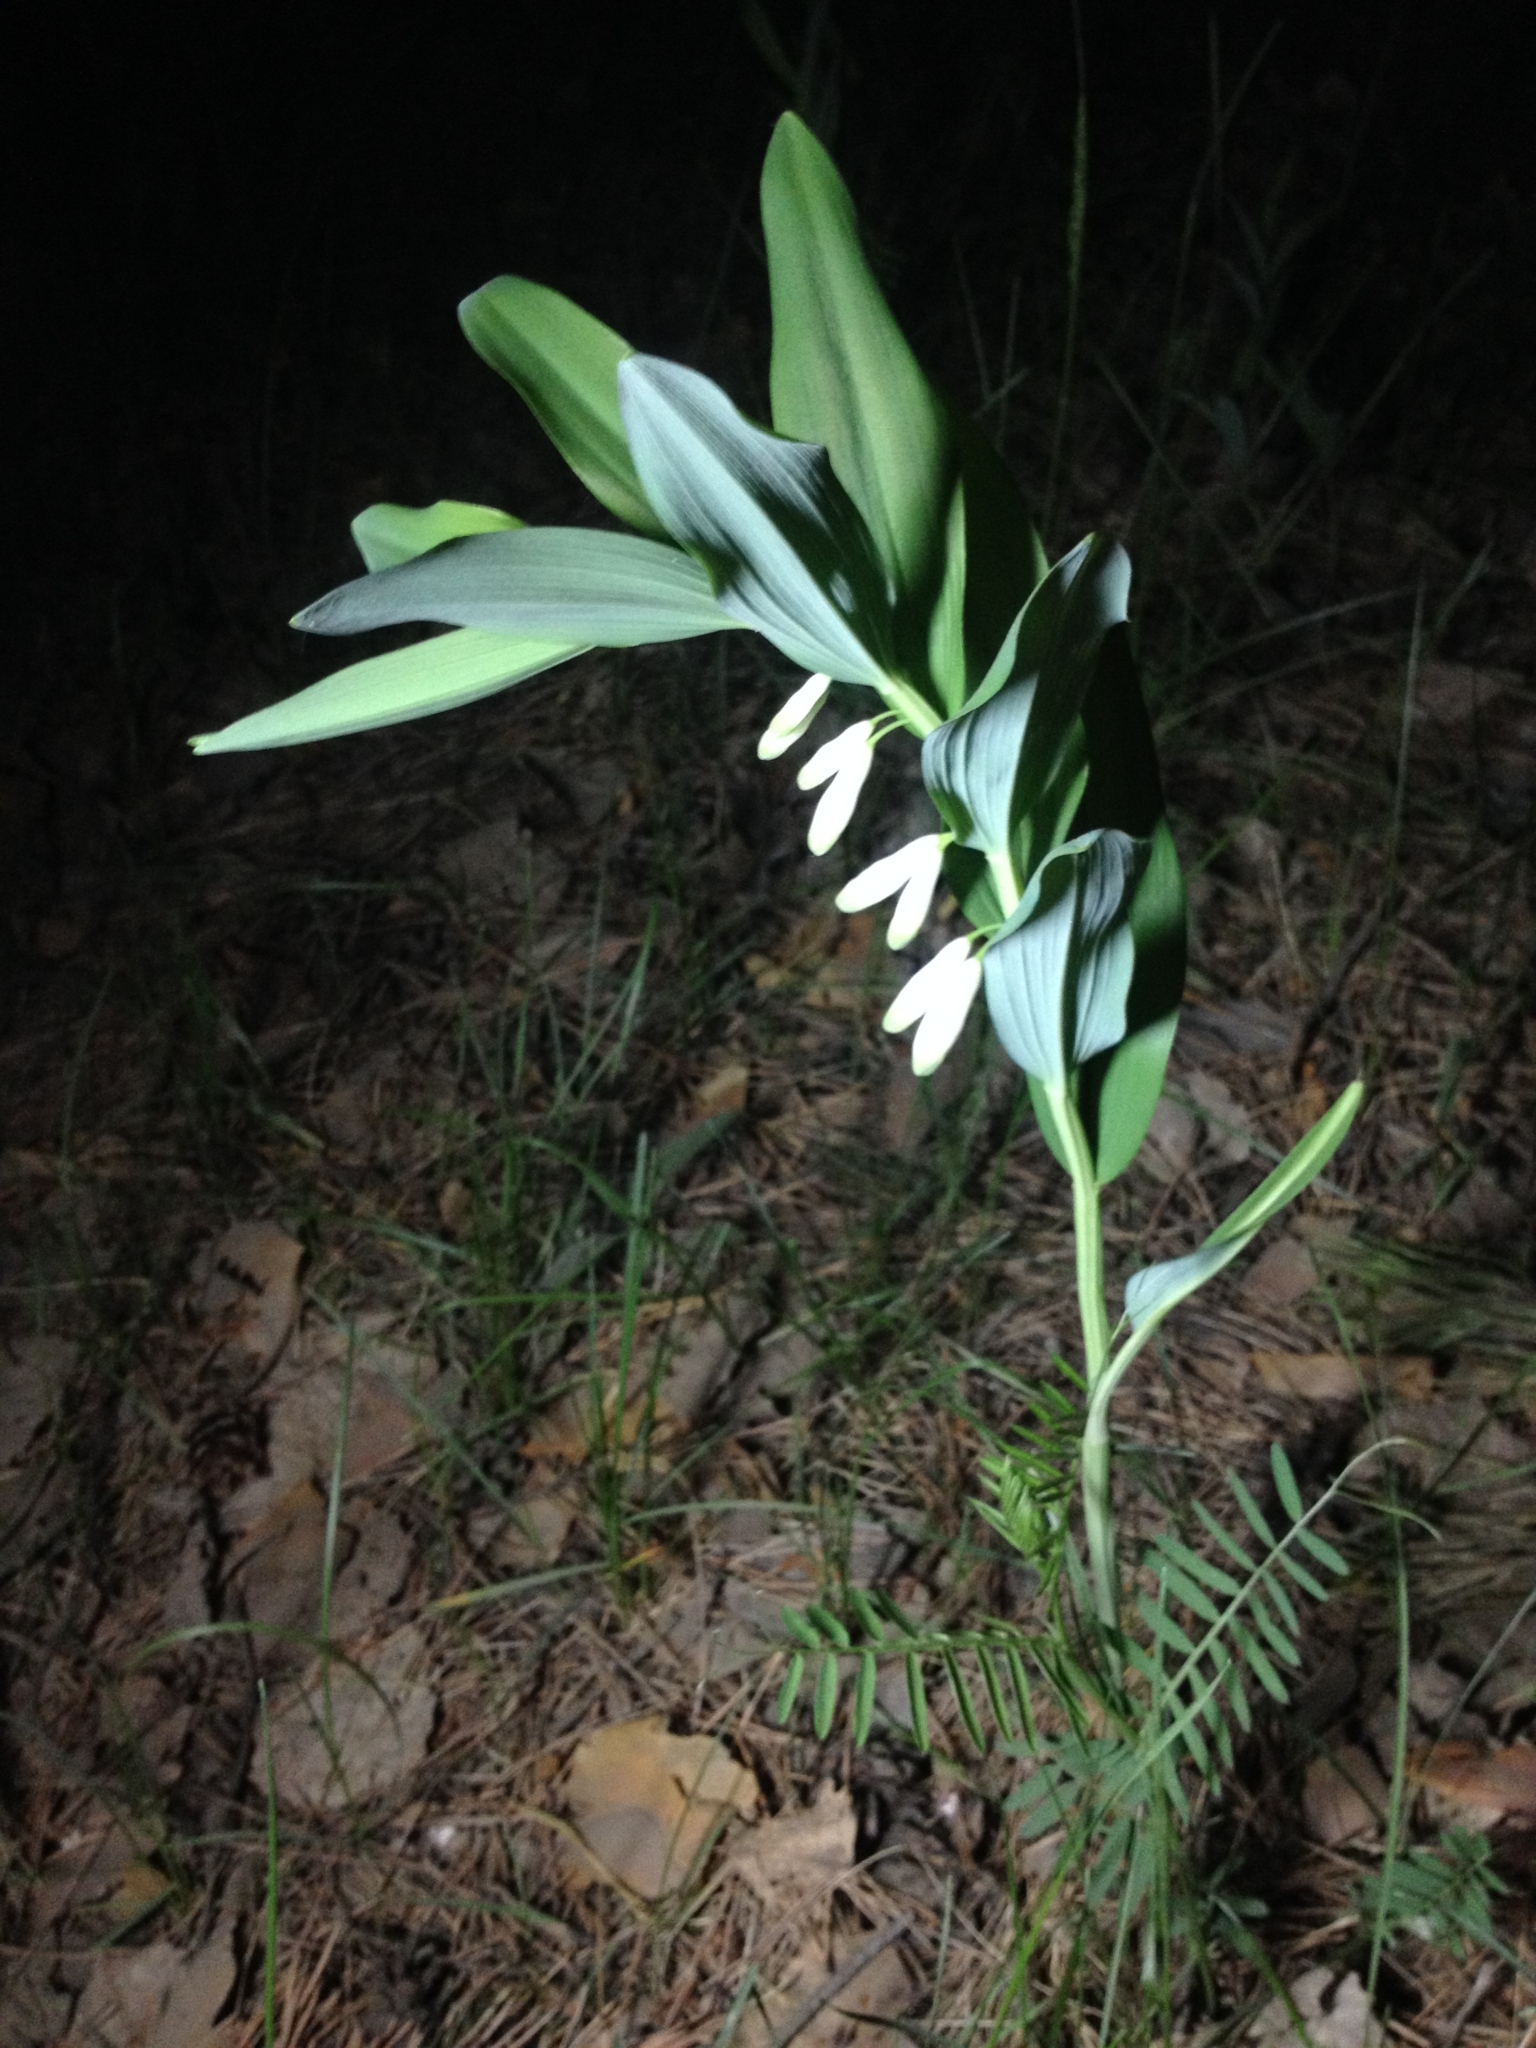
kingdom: Plantae
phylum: Tracheophyta
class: Liliopsida
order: Asparagales
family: Asparagaceae
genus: Polygonatum
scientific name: Polygonatum odoratum
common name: Angular solomon's-seal
